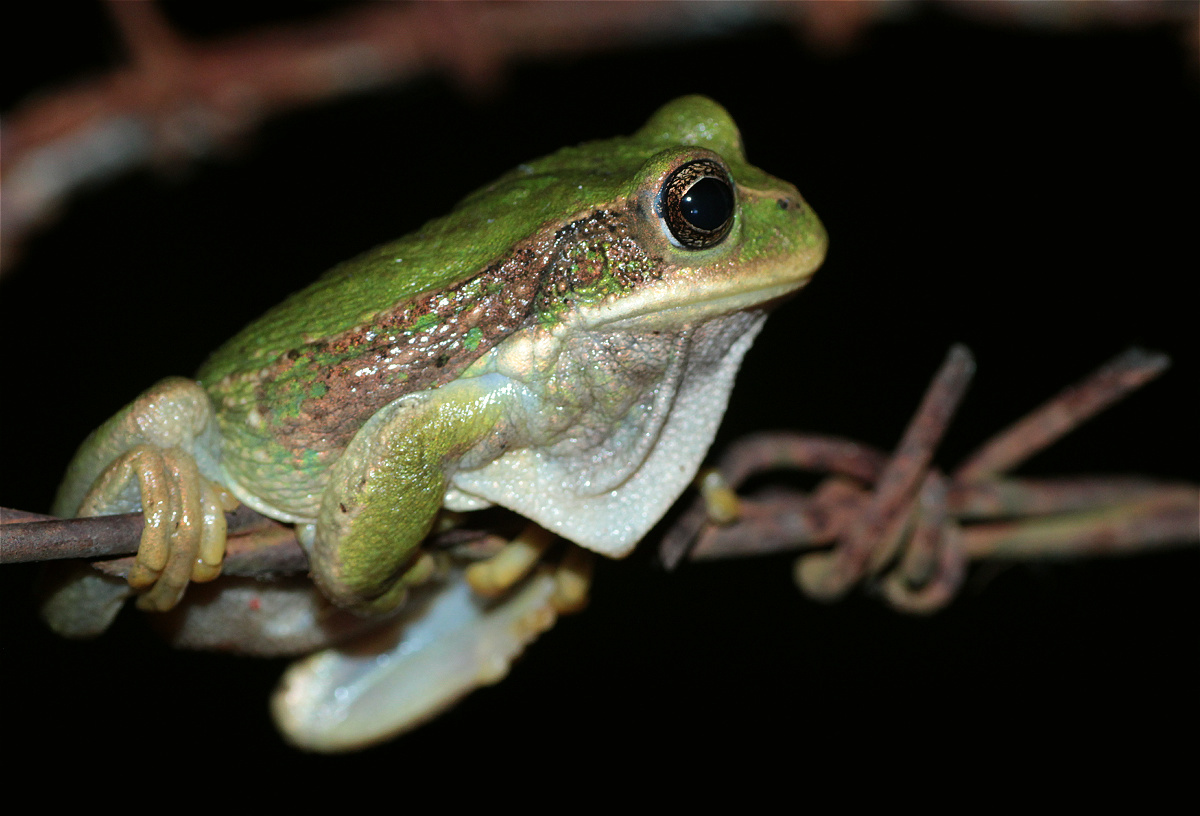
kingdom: Animalia
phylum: Chordata
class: Amphibia
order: Anura
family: Hemiphractidae
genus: Gastrotheca
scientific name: Gastrotheca cuencana
